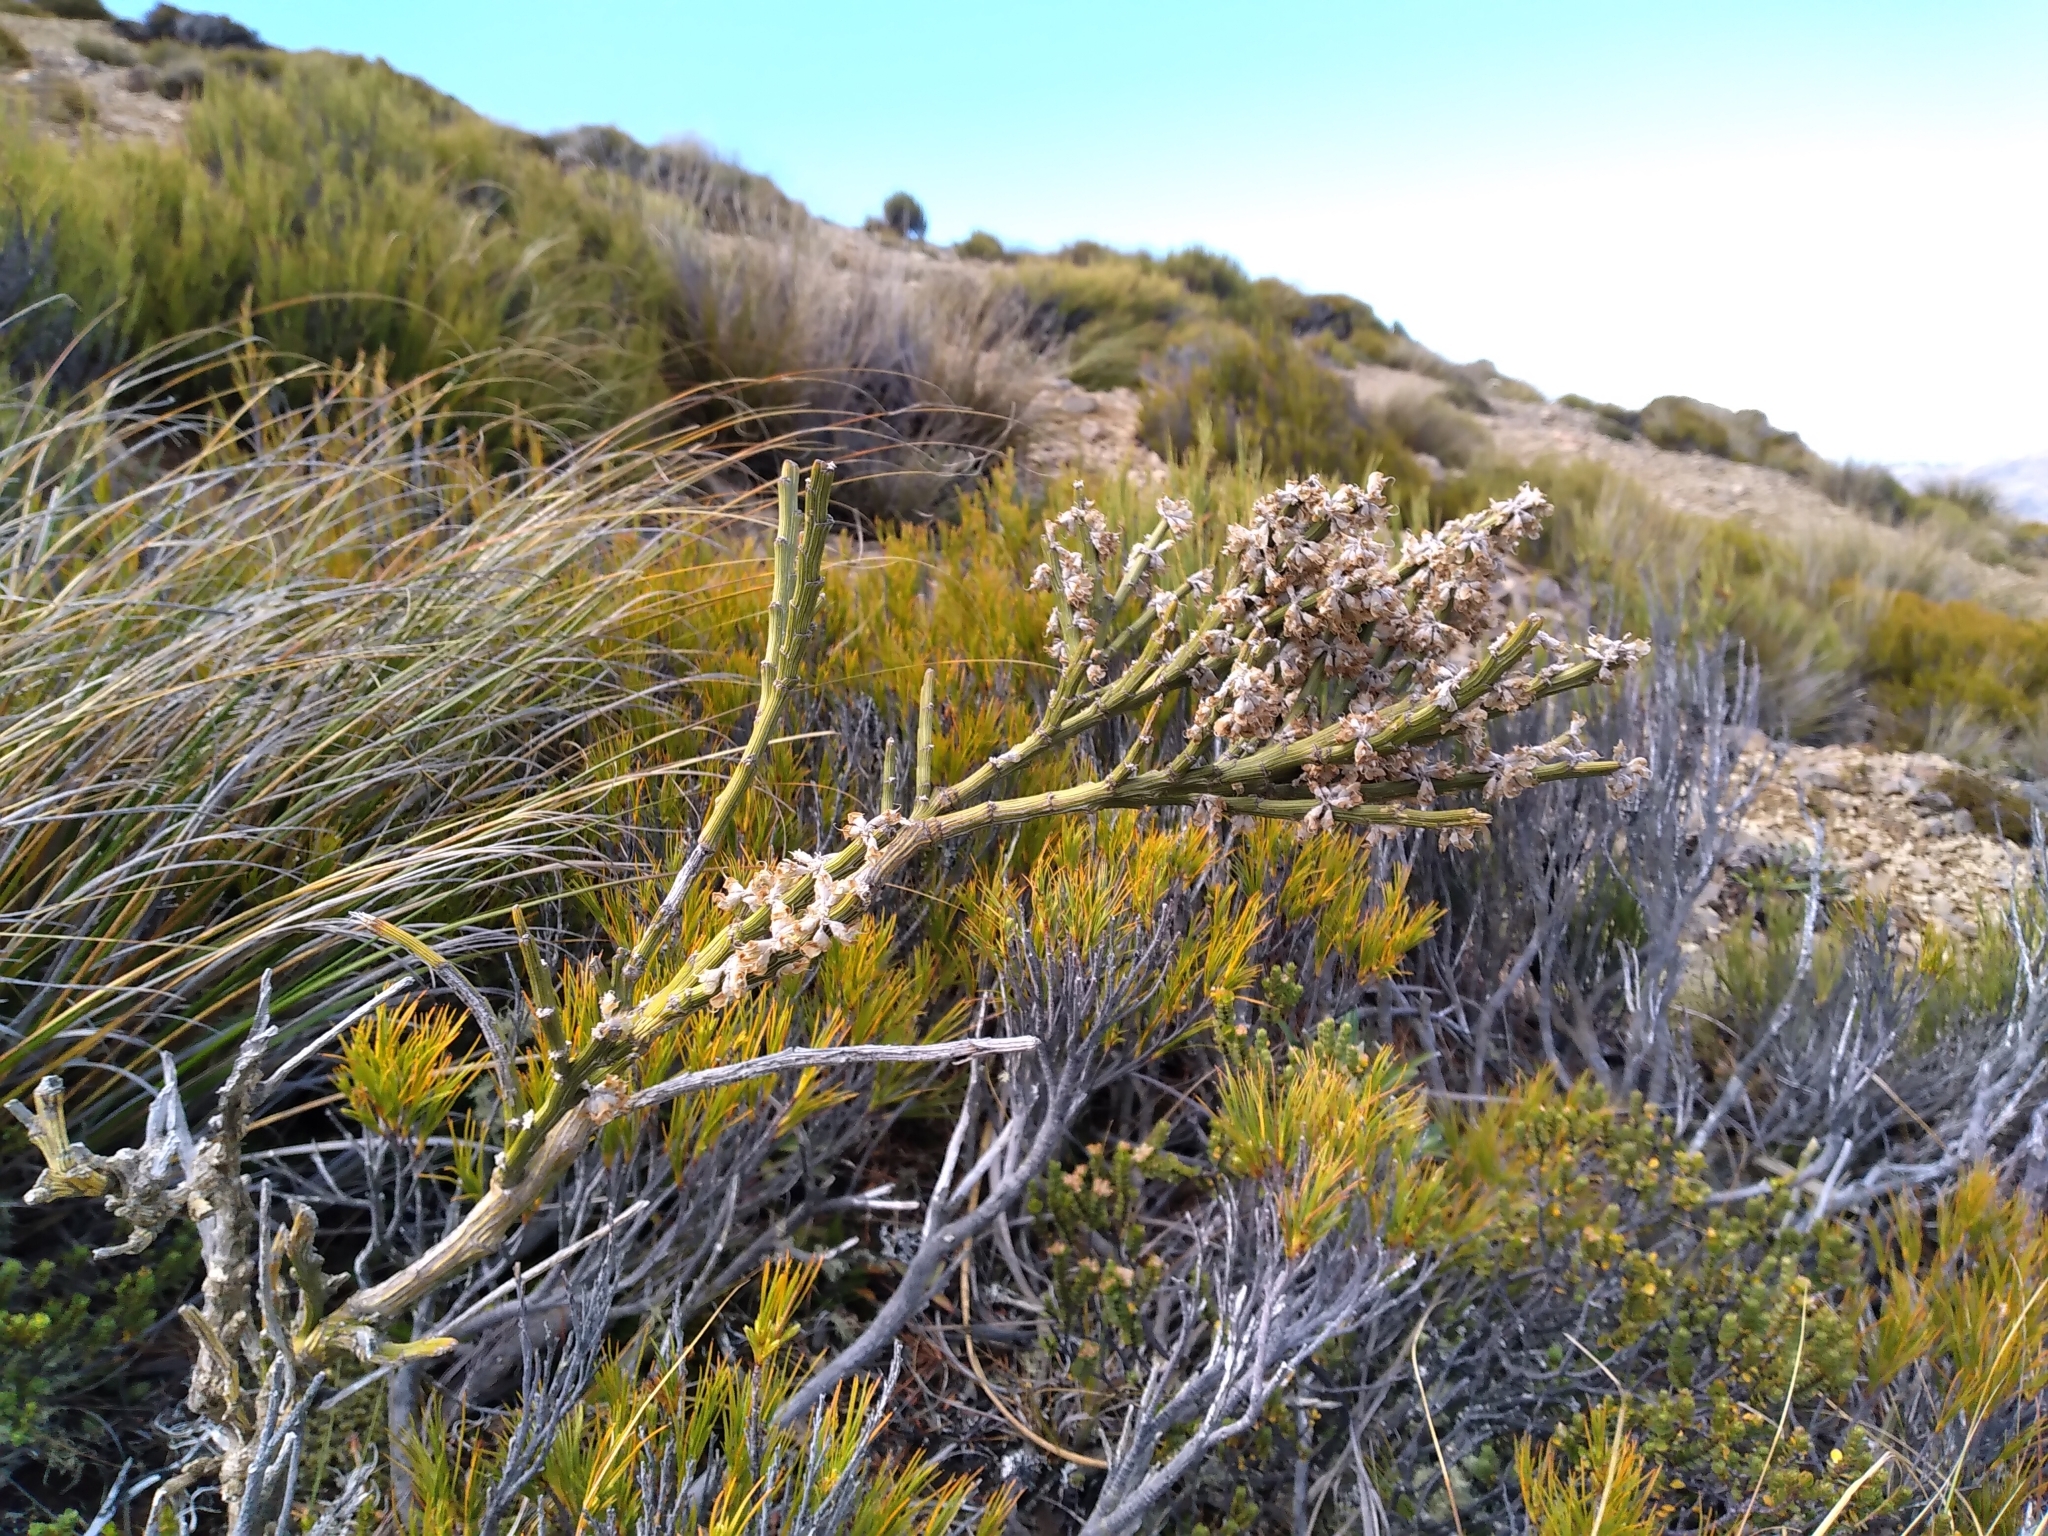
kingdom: Plantae
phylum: Tracheophyta
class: Magnoliopsida
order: Fabales
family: Fabaceae
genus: Carmichaelia
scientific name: Carmichaelia crassicaulis
